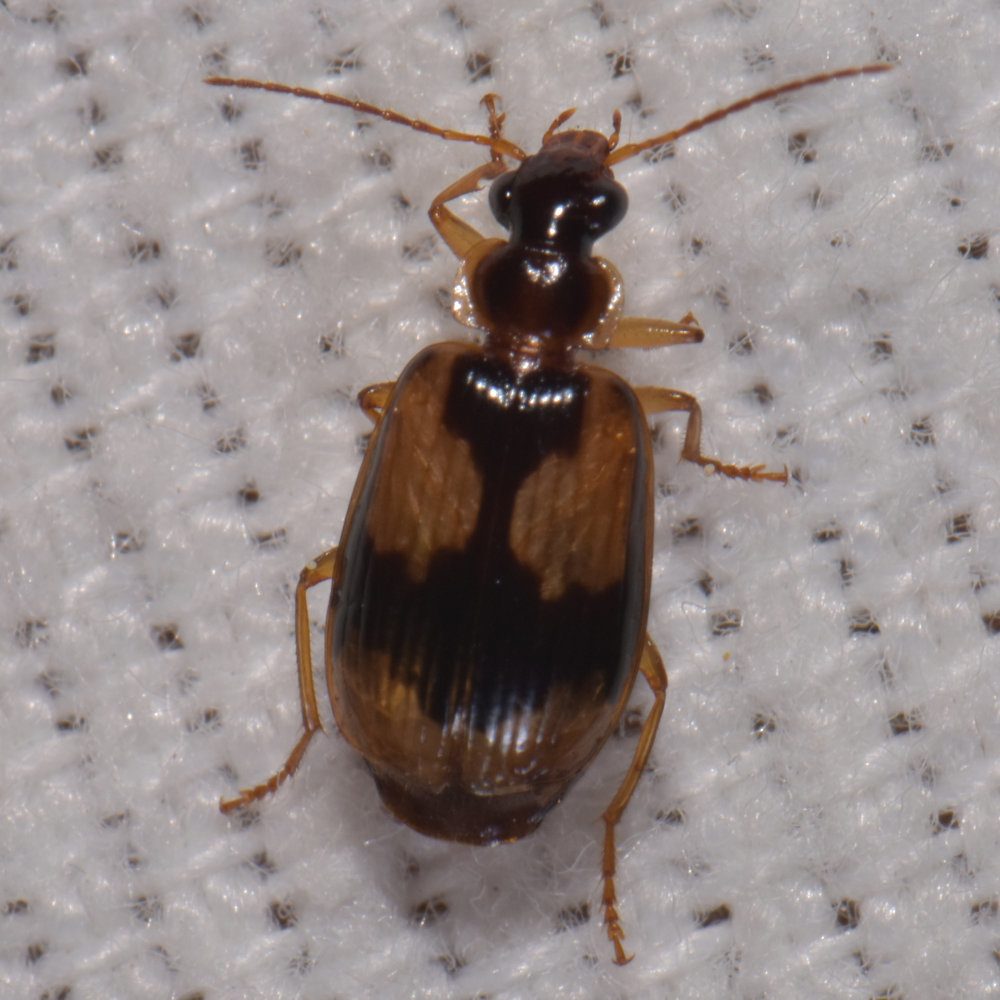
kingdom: Animalia
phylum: Arthropoda
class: Insecta
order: Coleoptera
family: Carabidae
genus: Lebia
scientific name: Lebia fuscata
